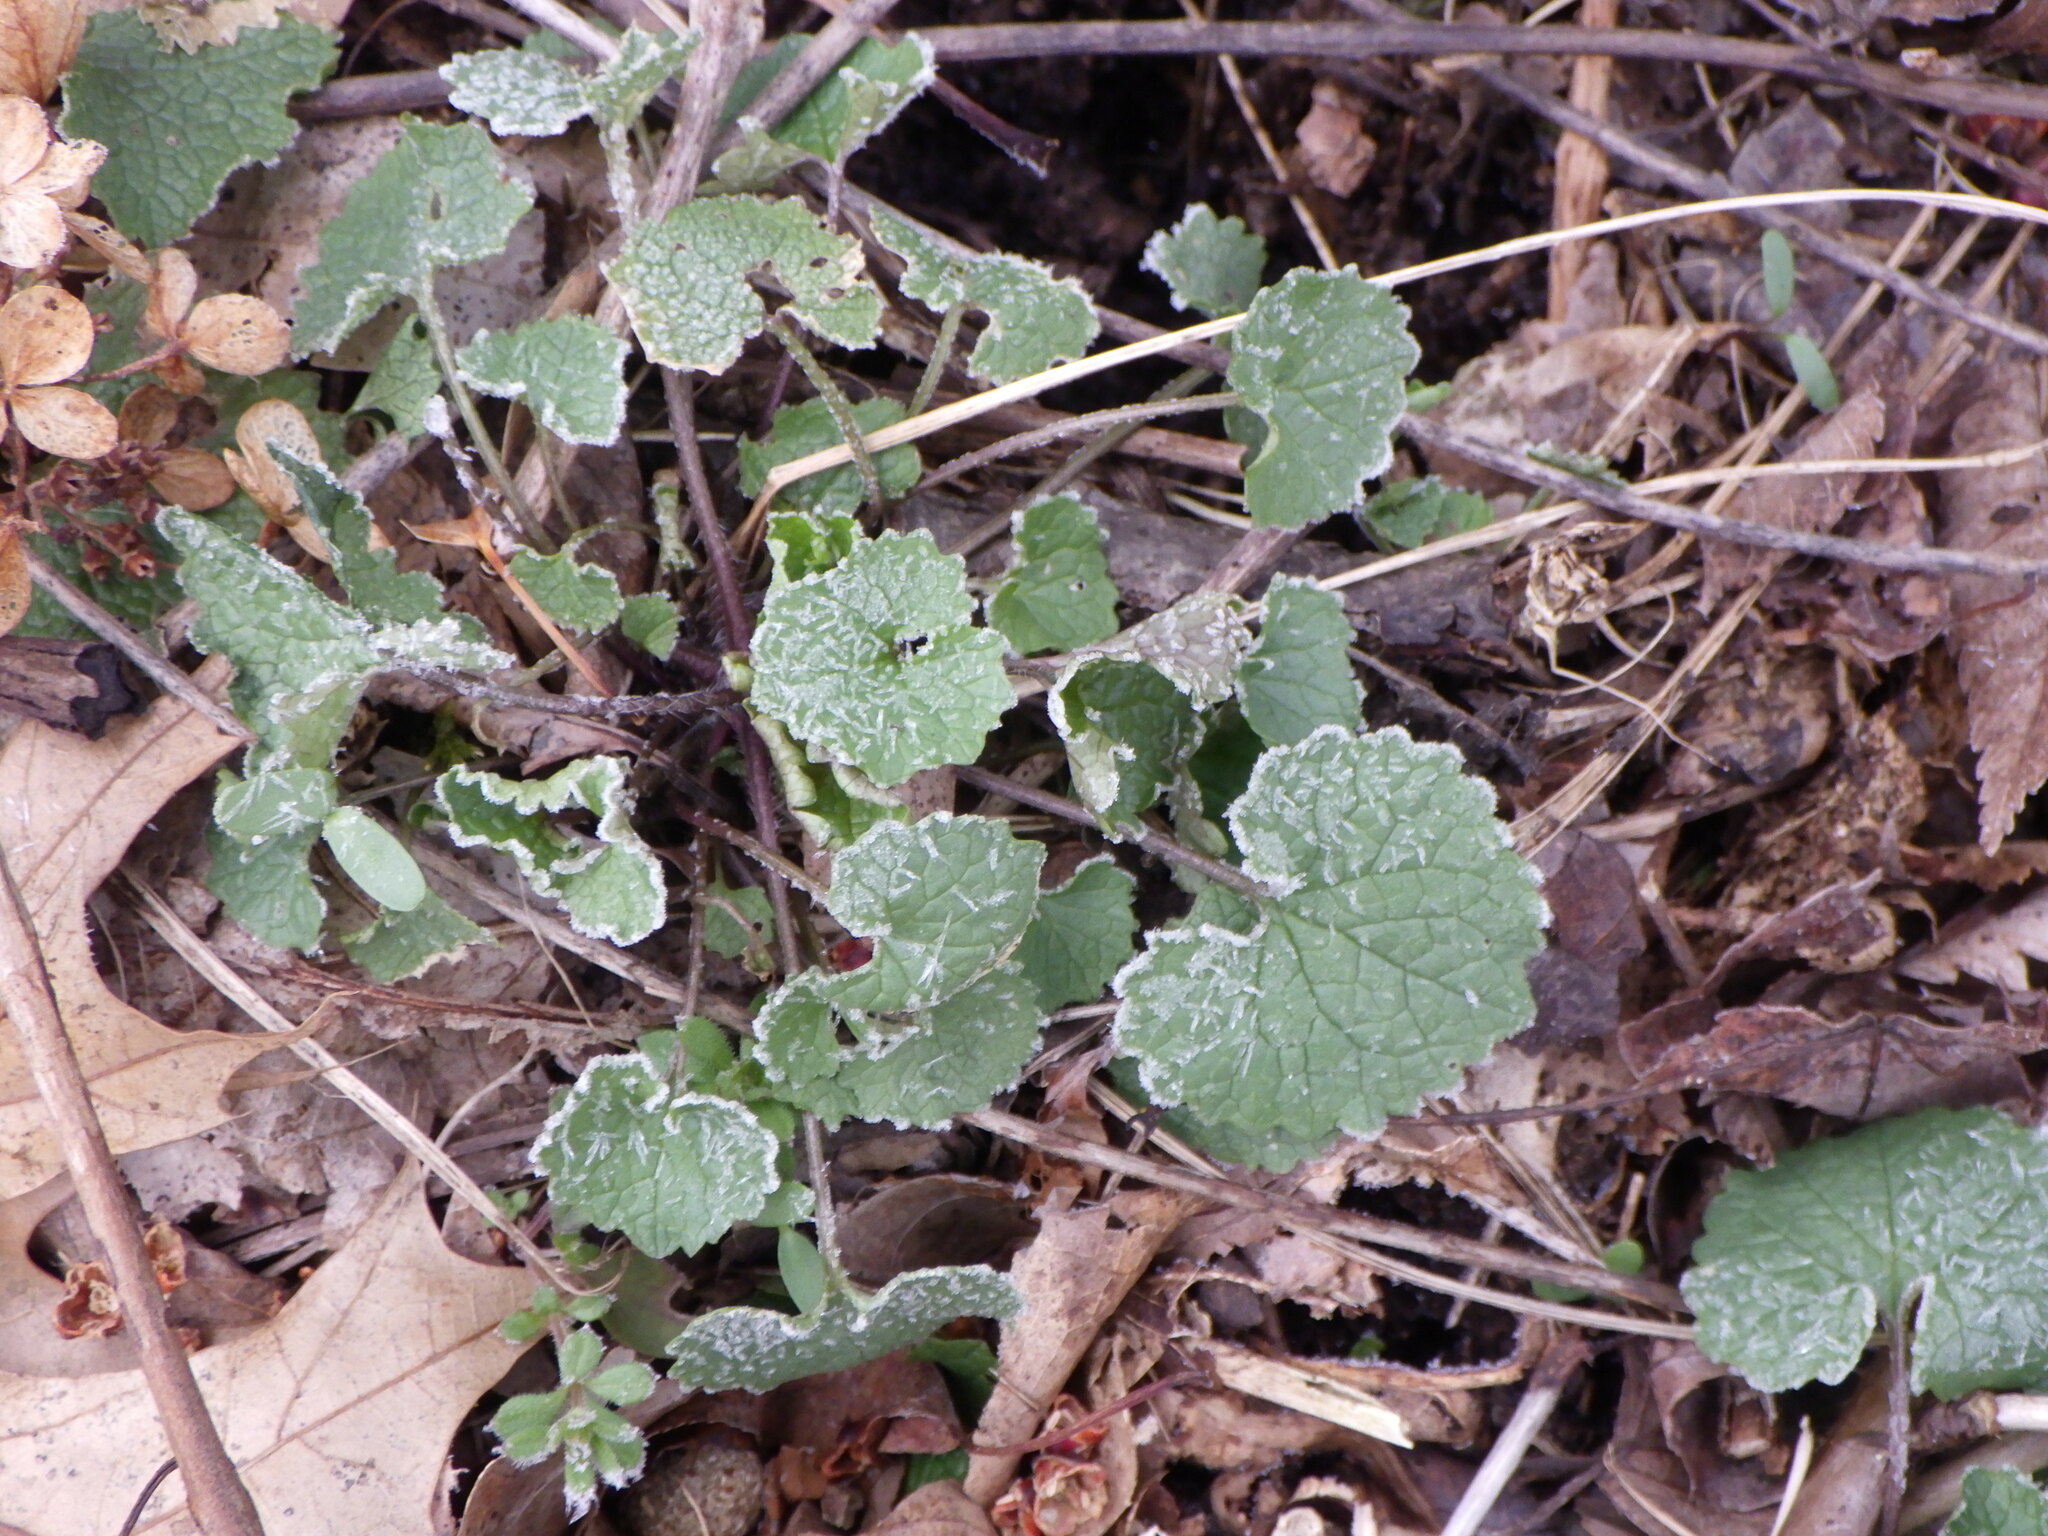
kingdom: Plantae
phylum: Tracheophyta
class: Magnoliopsida
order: Brassicales
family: Brassicaceae
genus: Alliaria
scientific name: Alliaria petiolata
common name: Garlic mustard
